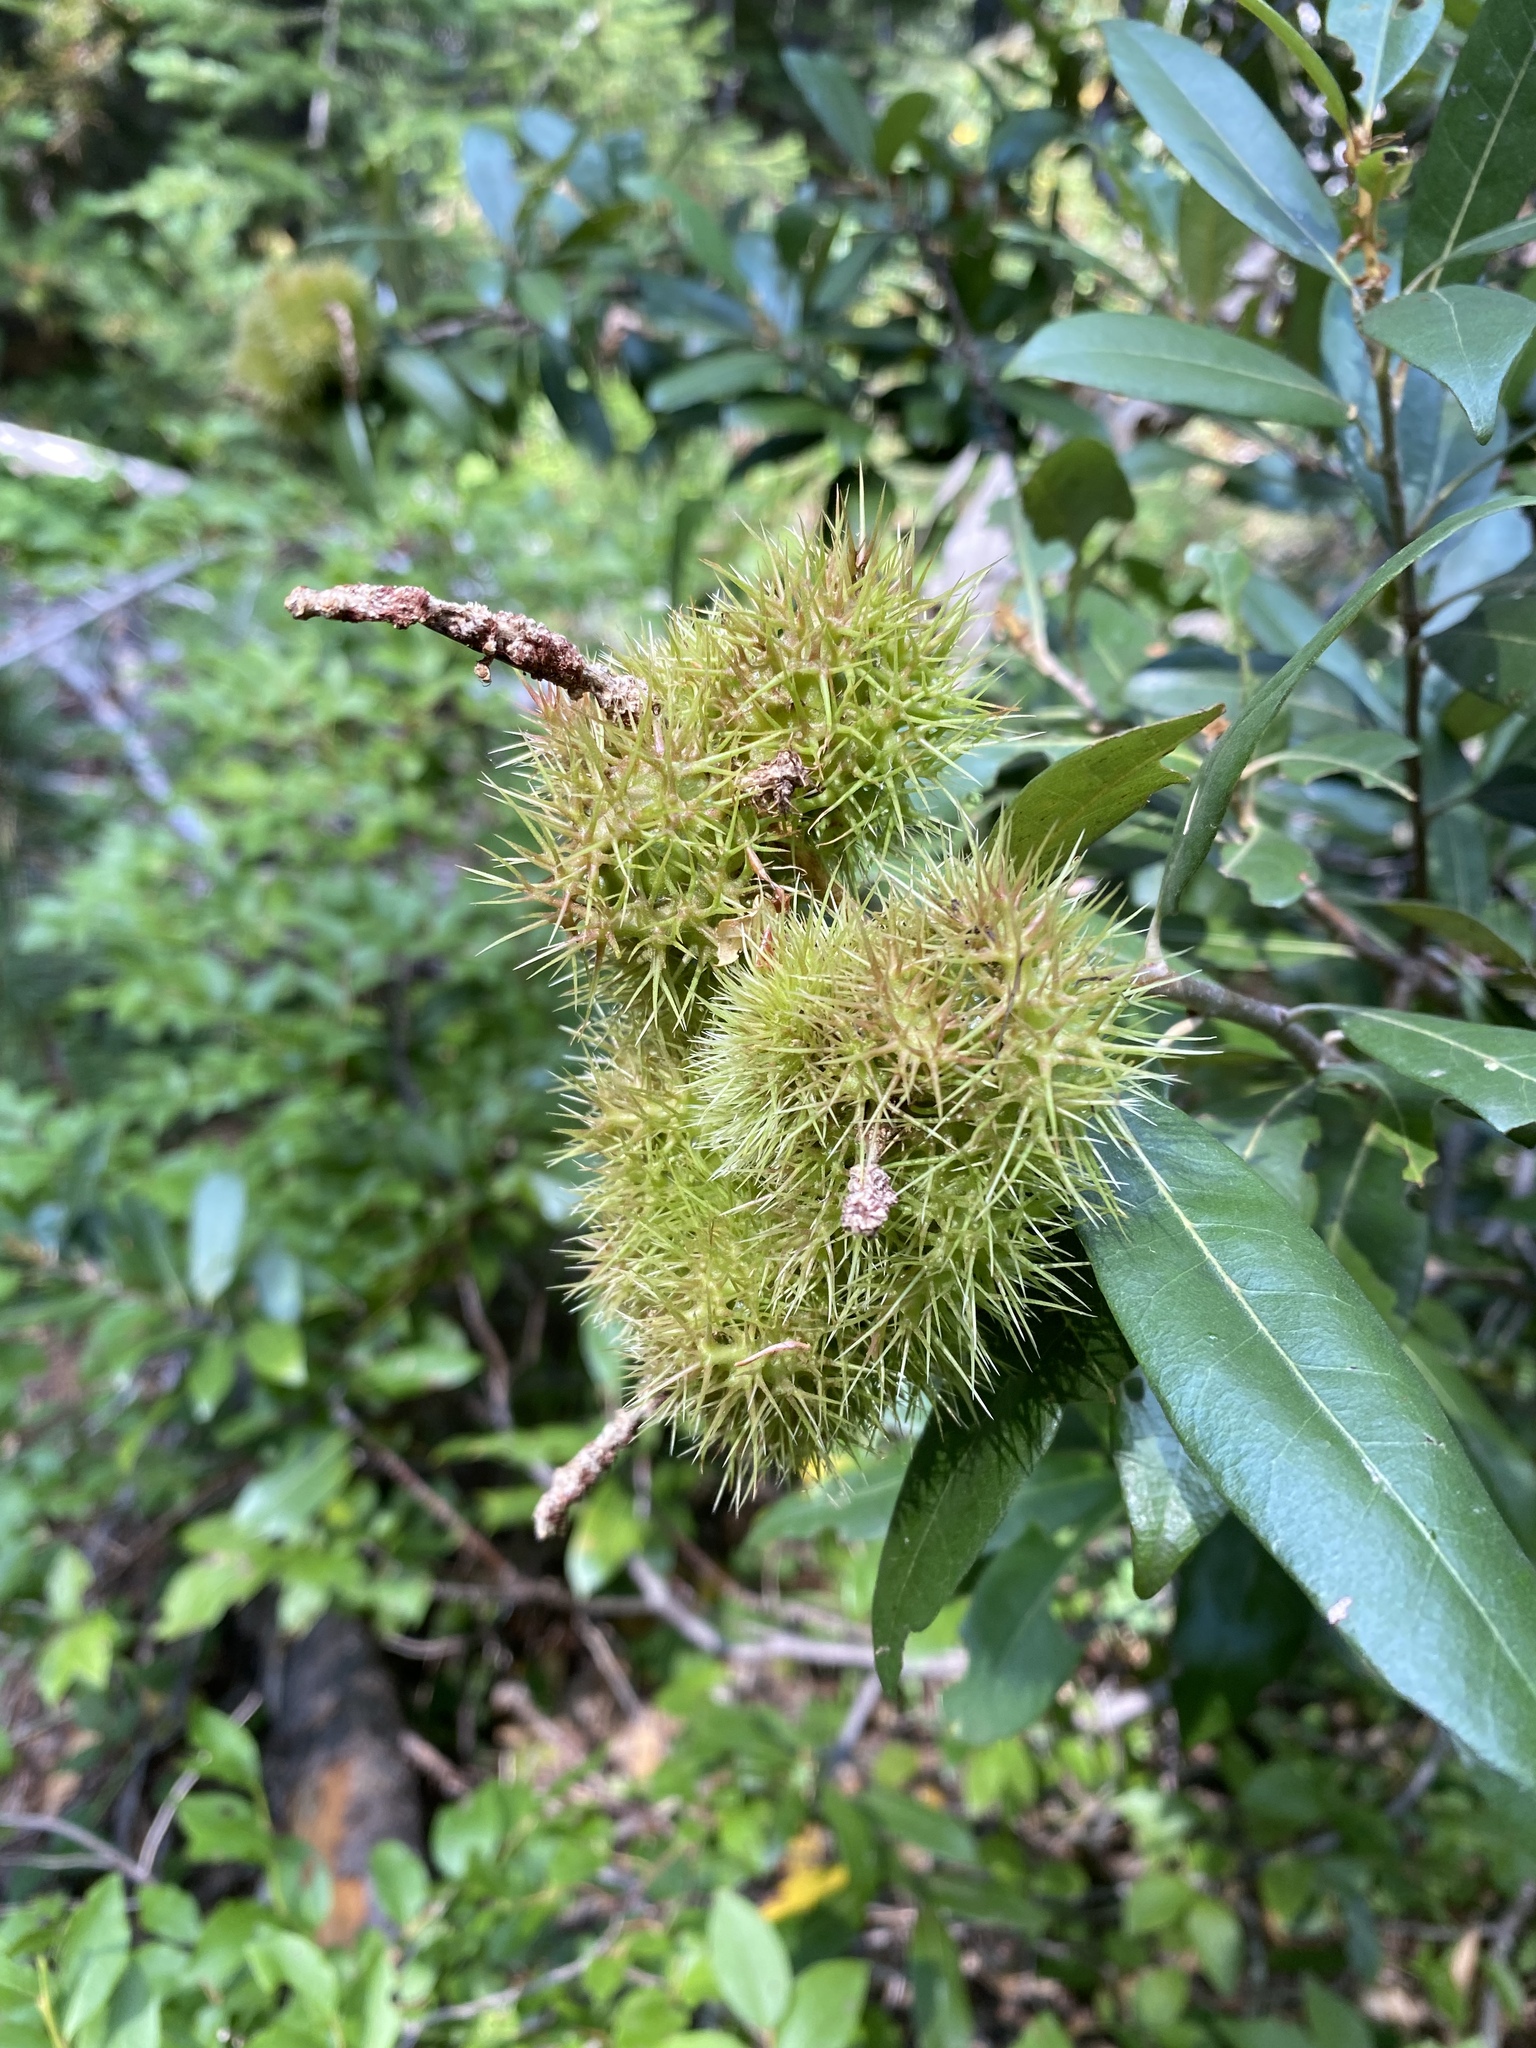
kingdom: Plantae
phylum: Tracheophyta
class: Magnoliopsida
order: Fagales
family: Fagaceae
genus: Chrysolepis
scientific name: Chrysolepis chrysophylla
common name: Giant chinquapin
